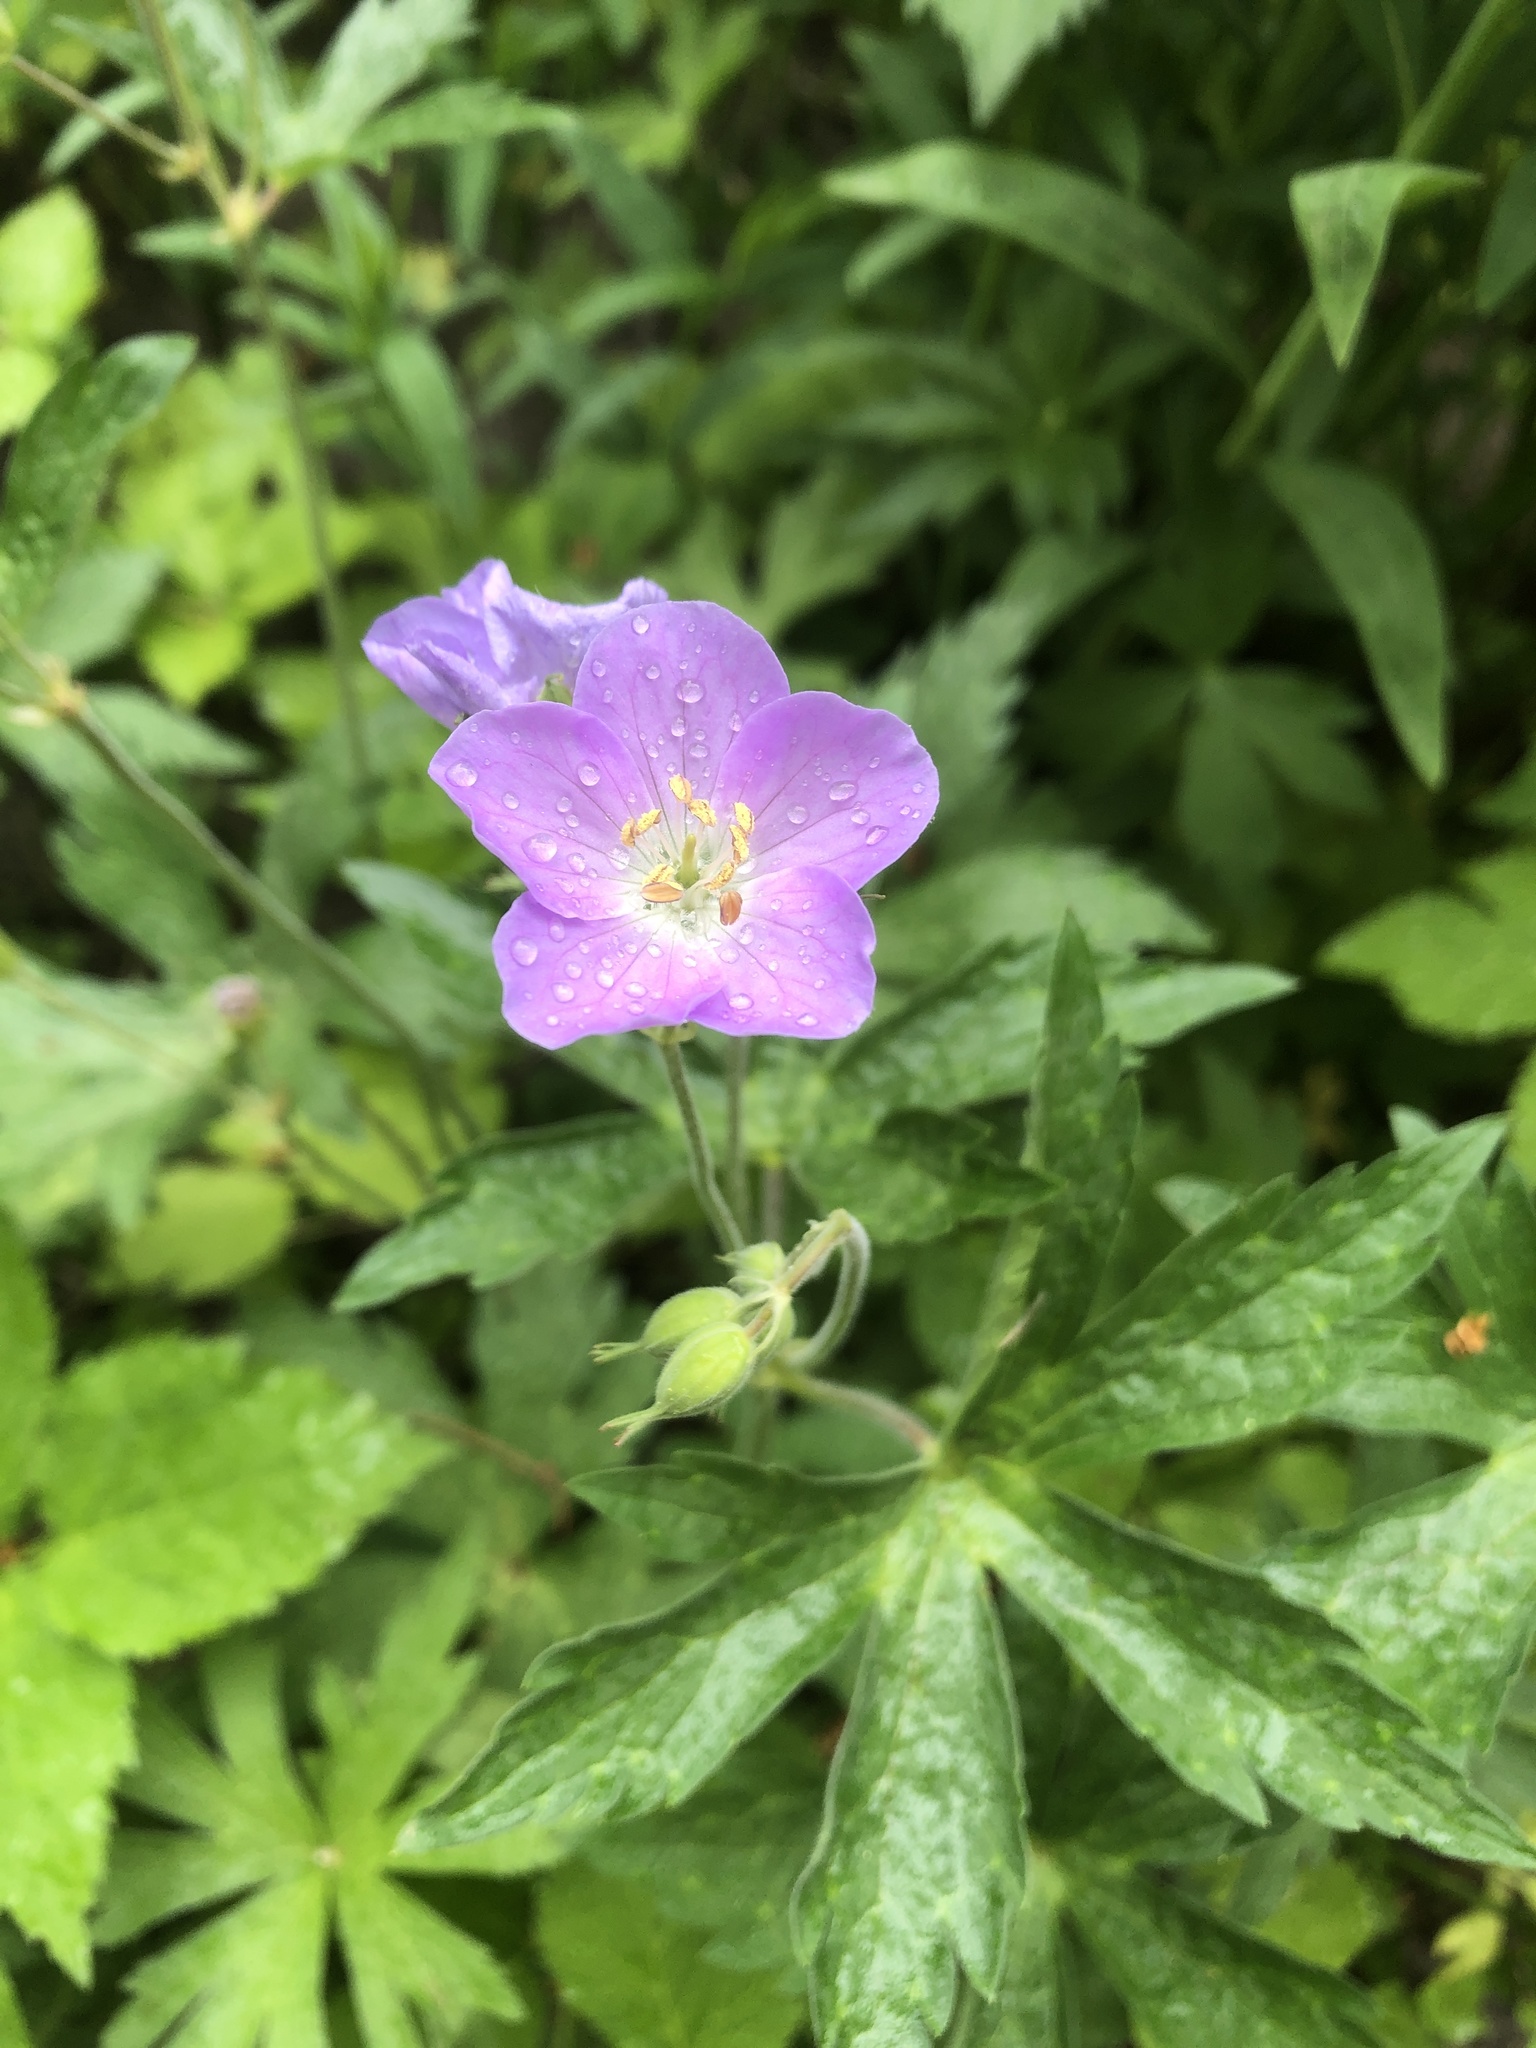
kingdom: Plantae
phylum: Tracheophyta
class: Magnoliopsida
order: Geraniales
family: Geraniaceae
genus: Geranium
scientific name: Geranium maculatum
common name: Spotted geranium
